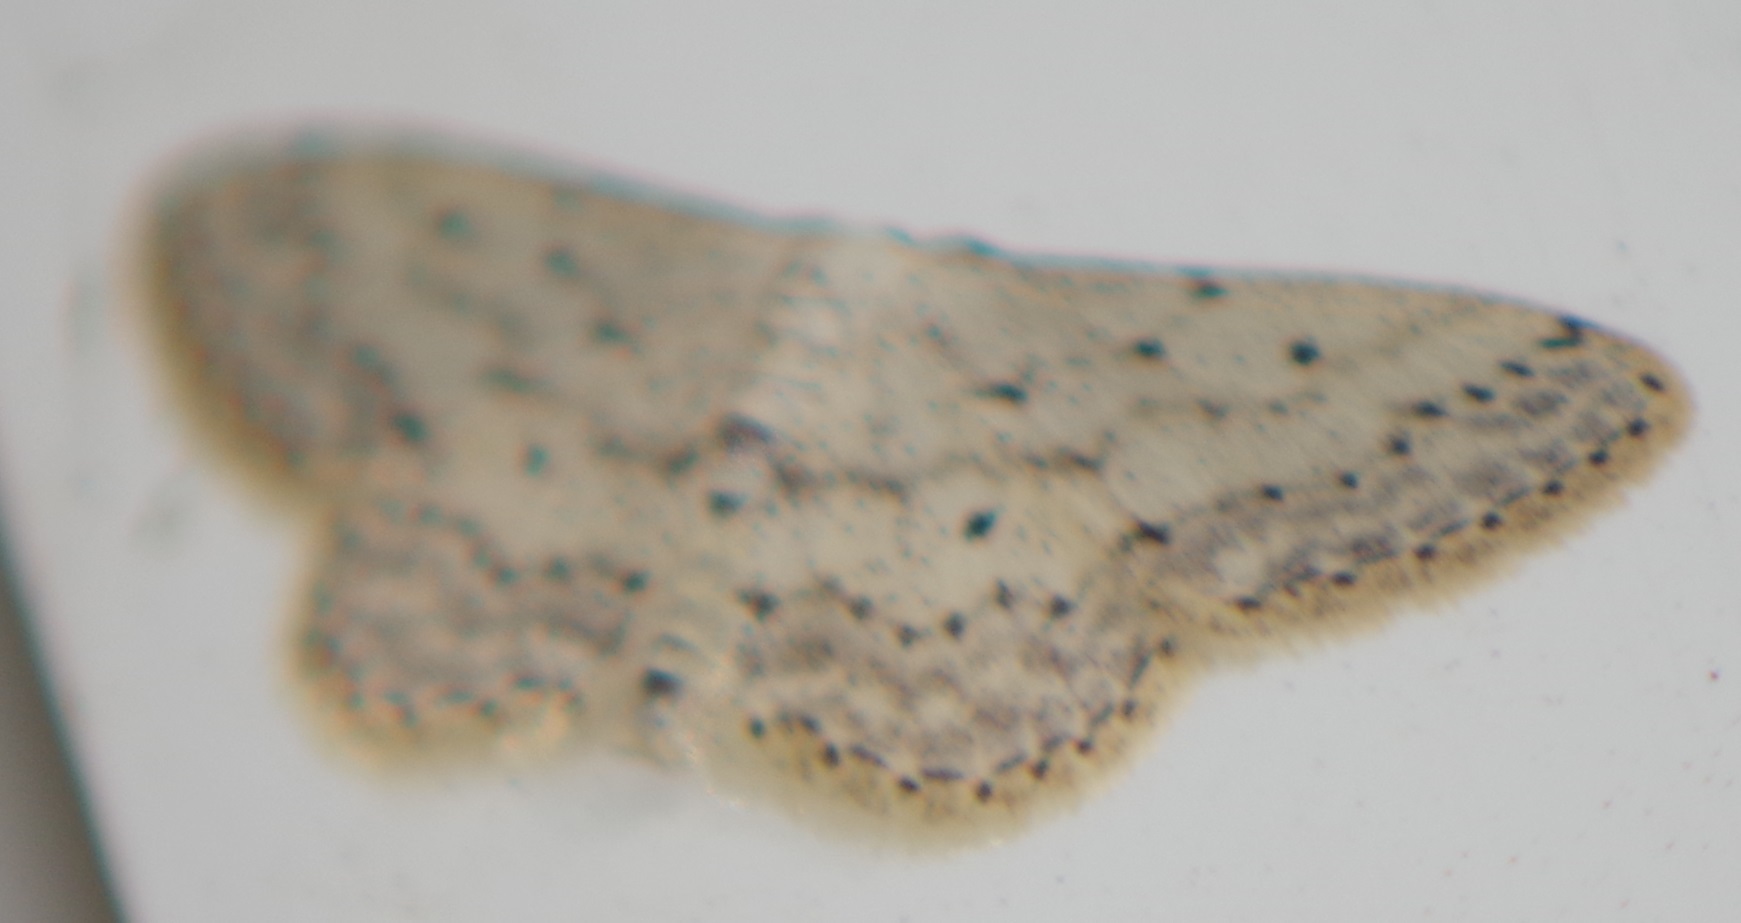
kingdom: Animalia
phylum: Arthropoda
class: Insecta
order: Lepidoptera
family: Geometridae
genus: Idaea
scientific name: Idaea seriata
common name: Small dusty wave
